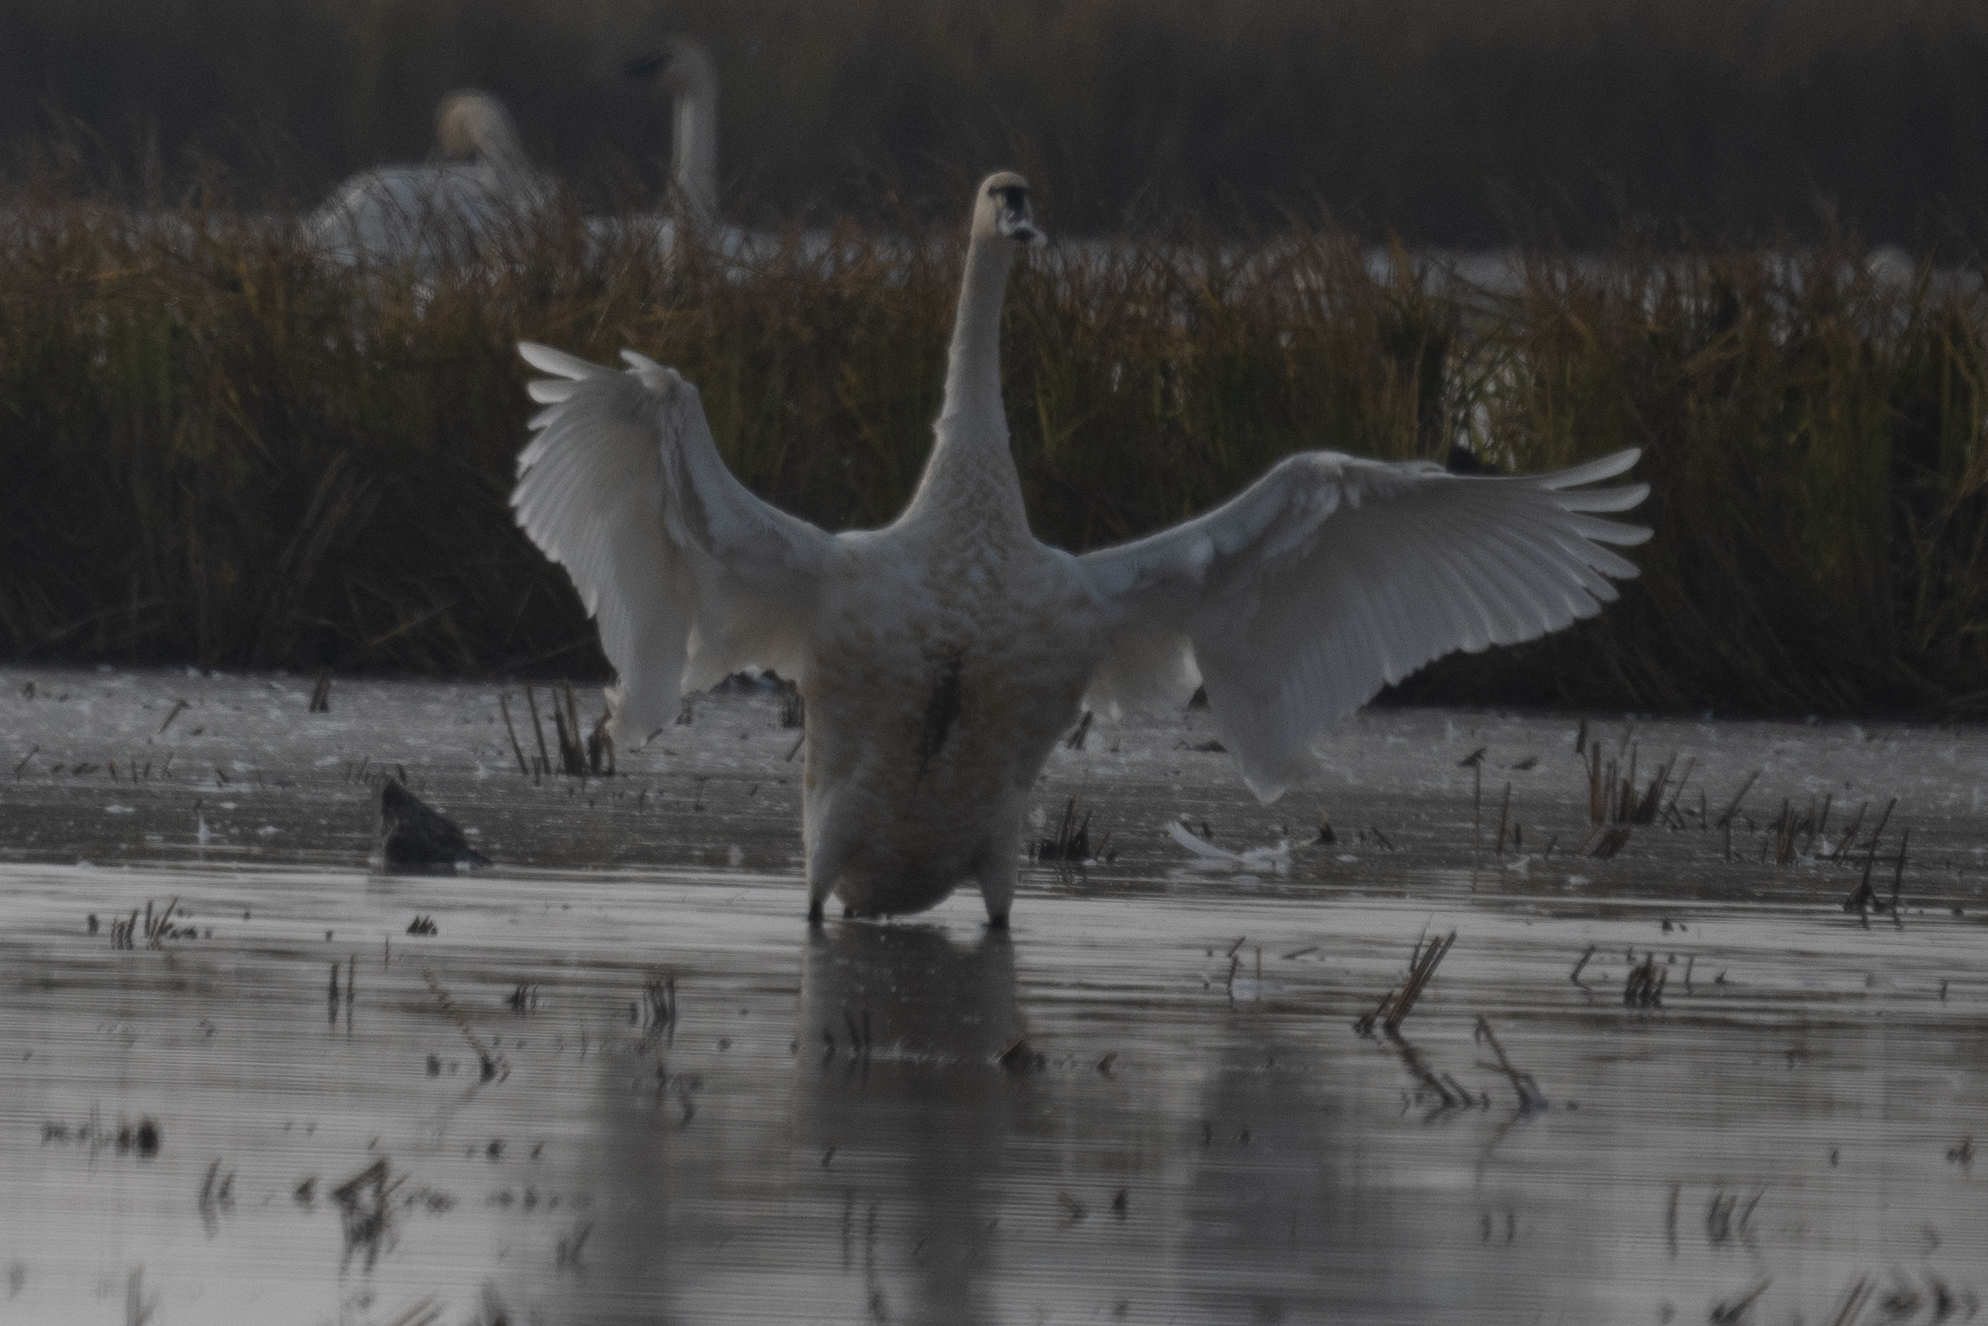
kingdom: Animalia
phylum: Chordata
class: Aves
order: Anseriformes
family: Anatidae
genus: Cygnus
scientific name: Cygnus columbianus
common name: Tundra swan
